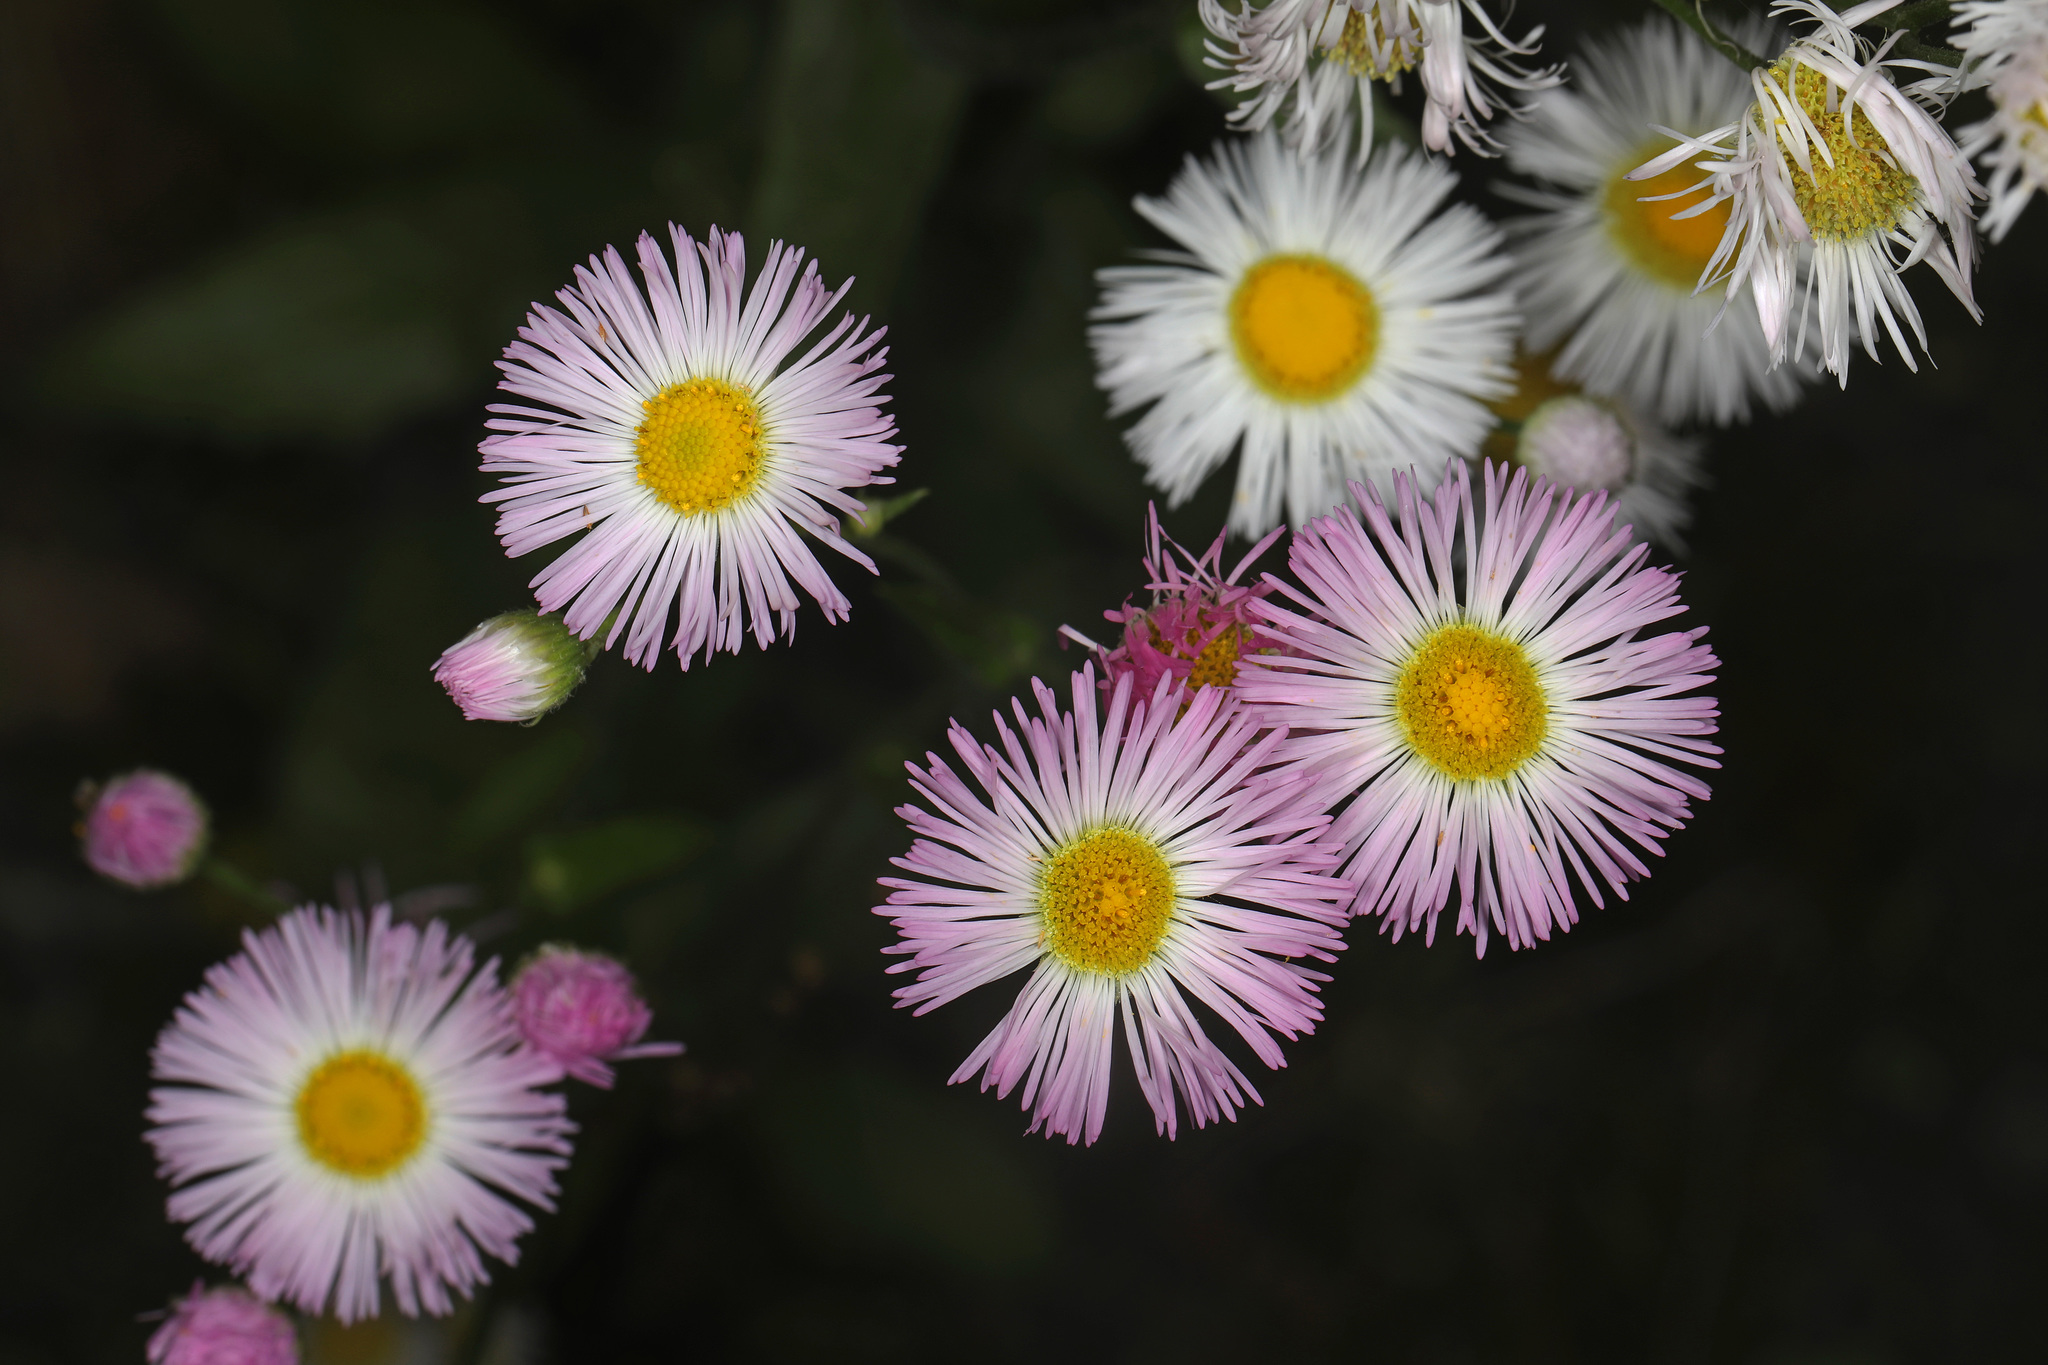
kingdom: Plantae
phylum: Tracheophyta
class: Magnoliopsida
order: Asterales
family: Asteraceae
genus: Erigeron
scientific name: Erigeron philadelphicus
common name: Robin's-plantain
